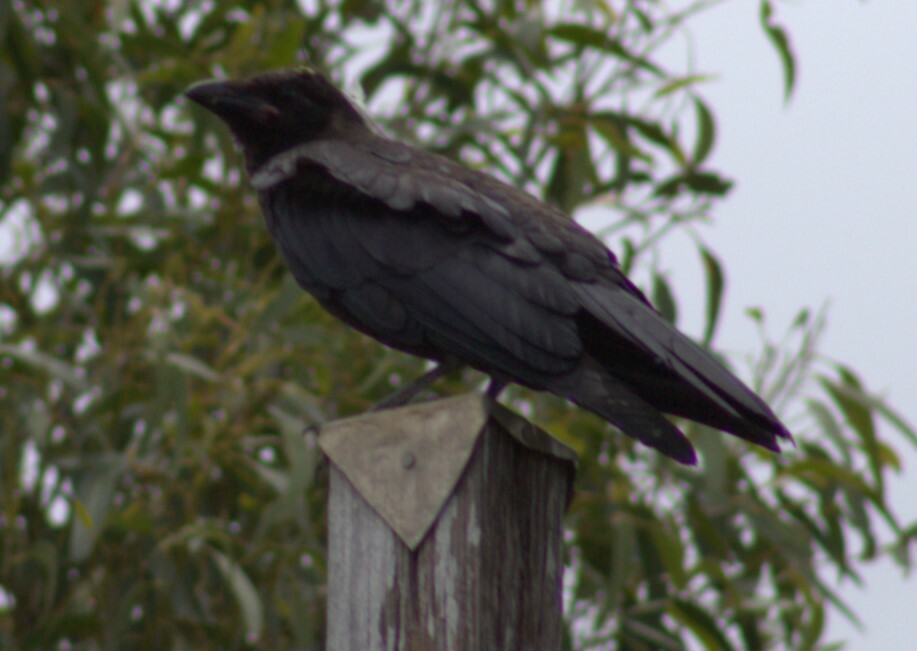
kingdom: Animalia
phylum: Chordata
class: Aves
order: Passeriformes
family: Corvidae
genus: Corvus
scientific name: Corvus orru
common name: Torresian crow
